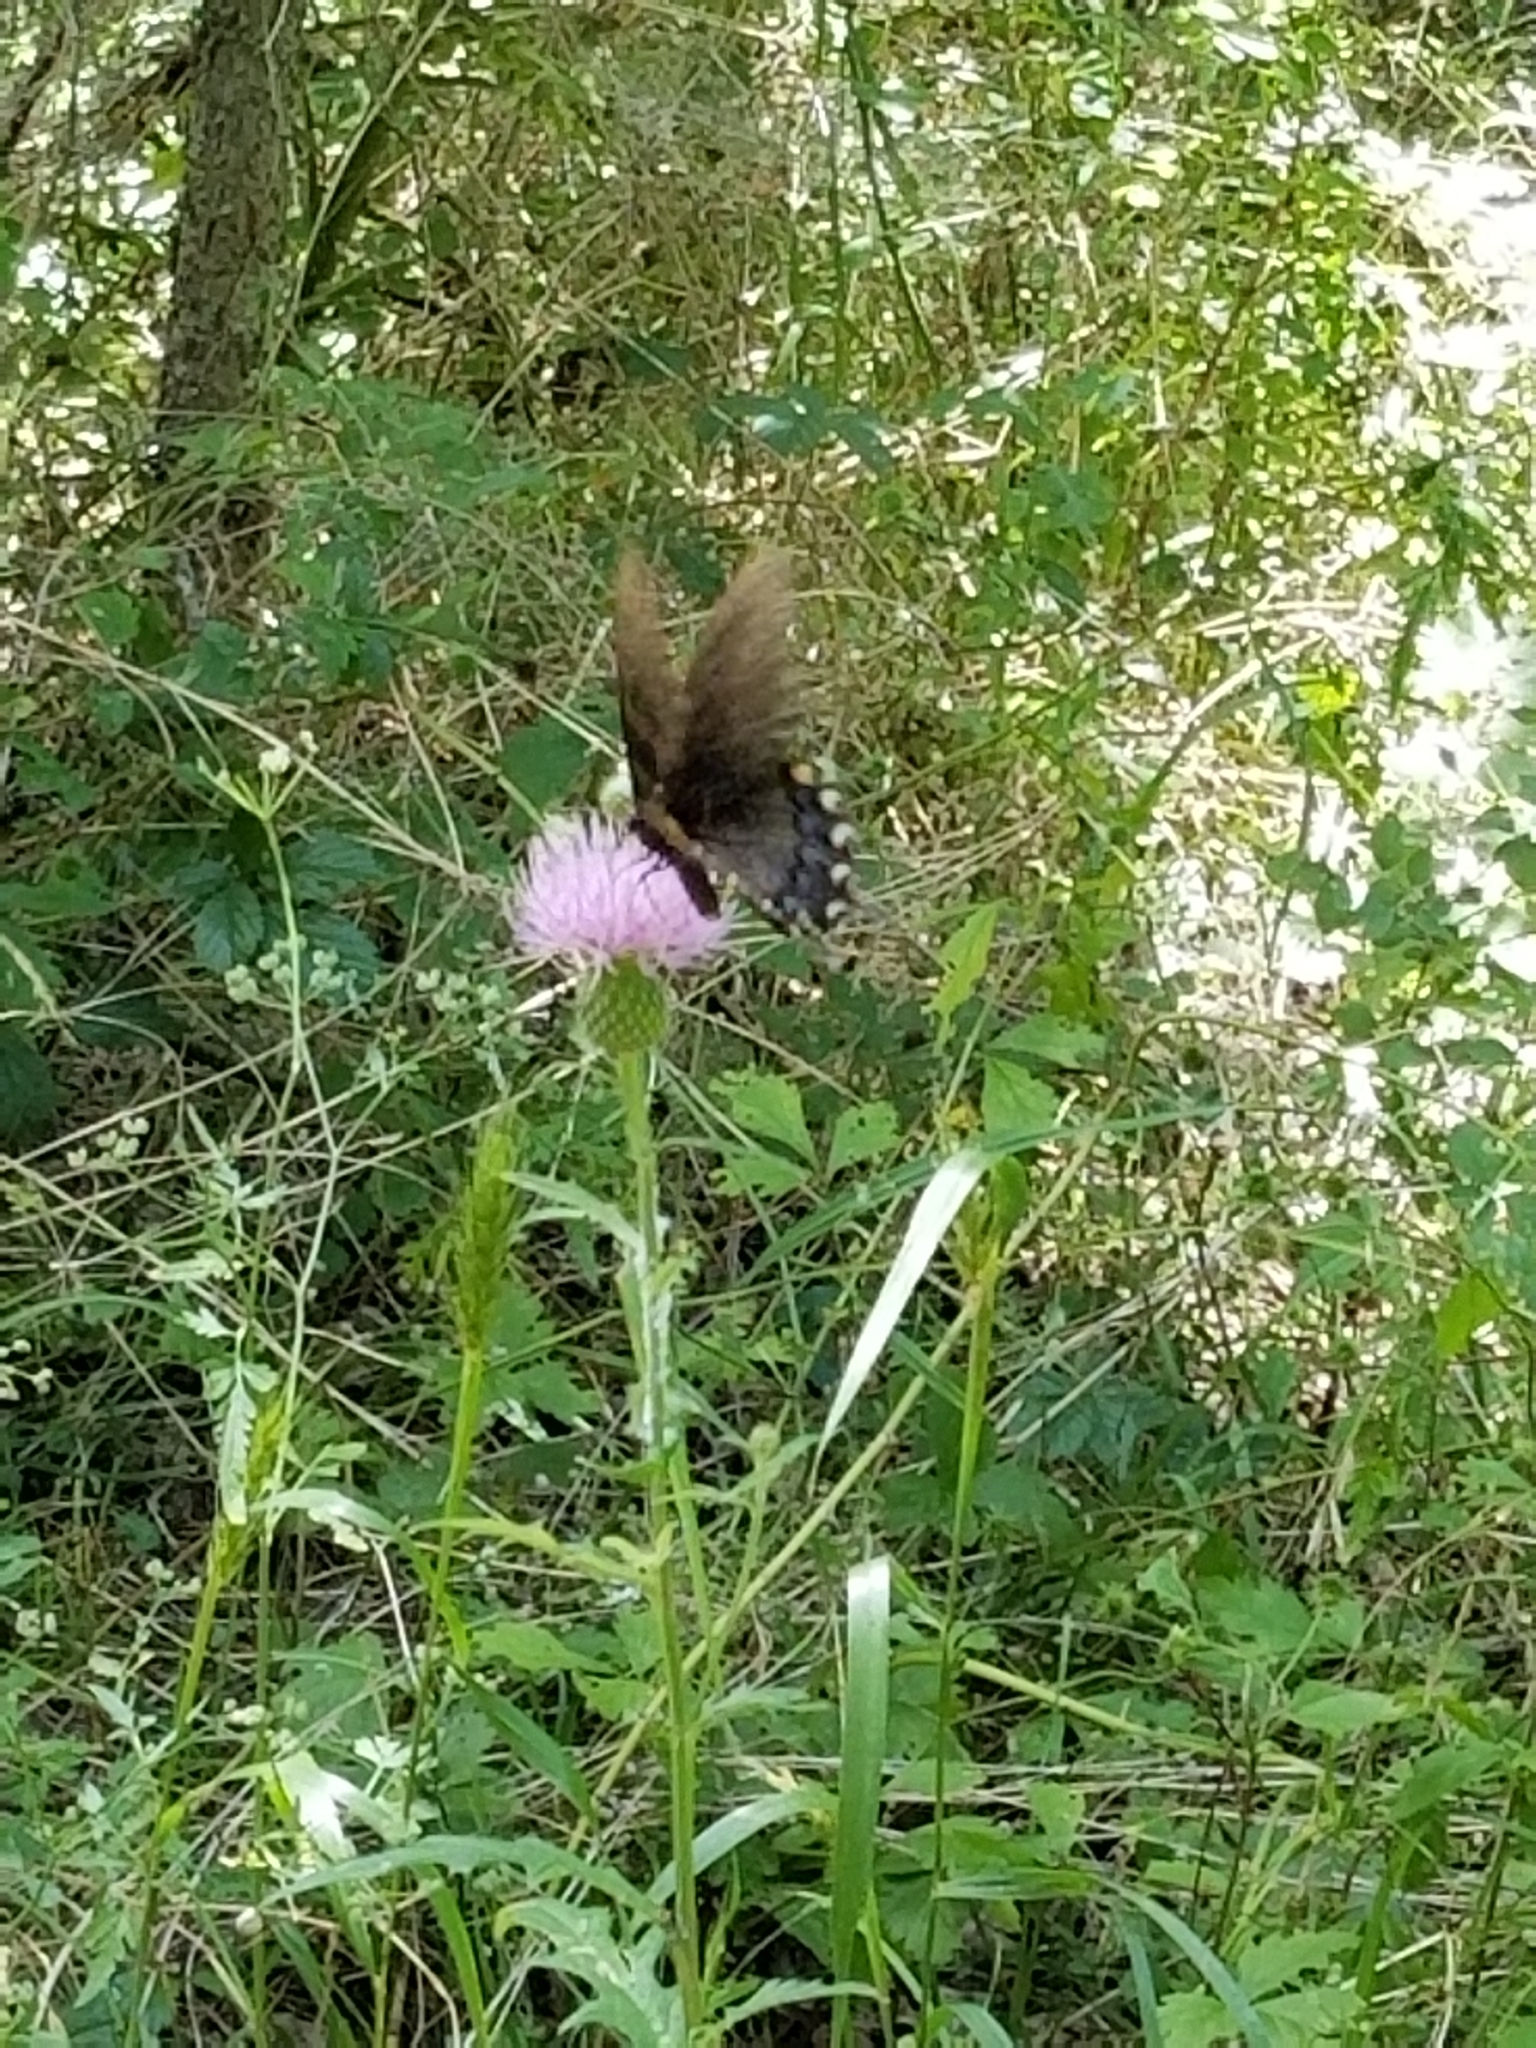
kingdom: Animalia
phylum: Arthropoda
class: Insecta
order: Lepidoptera
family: Papilionidae
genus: Papilio
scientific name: Papilio glaucus
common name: Tiger swallowtail
